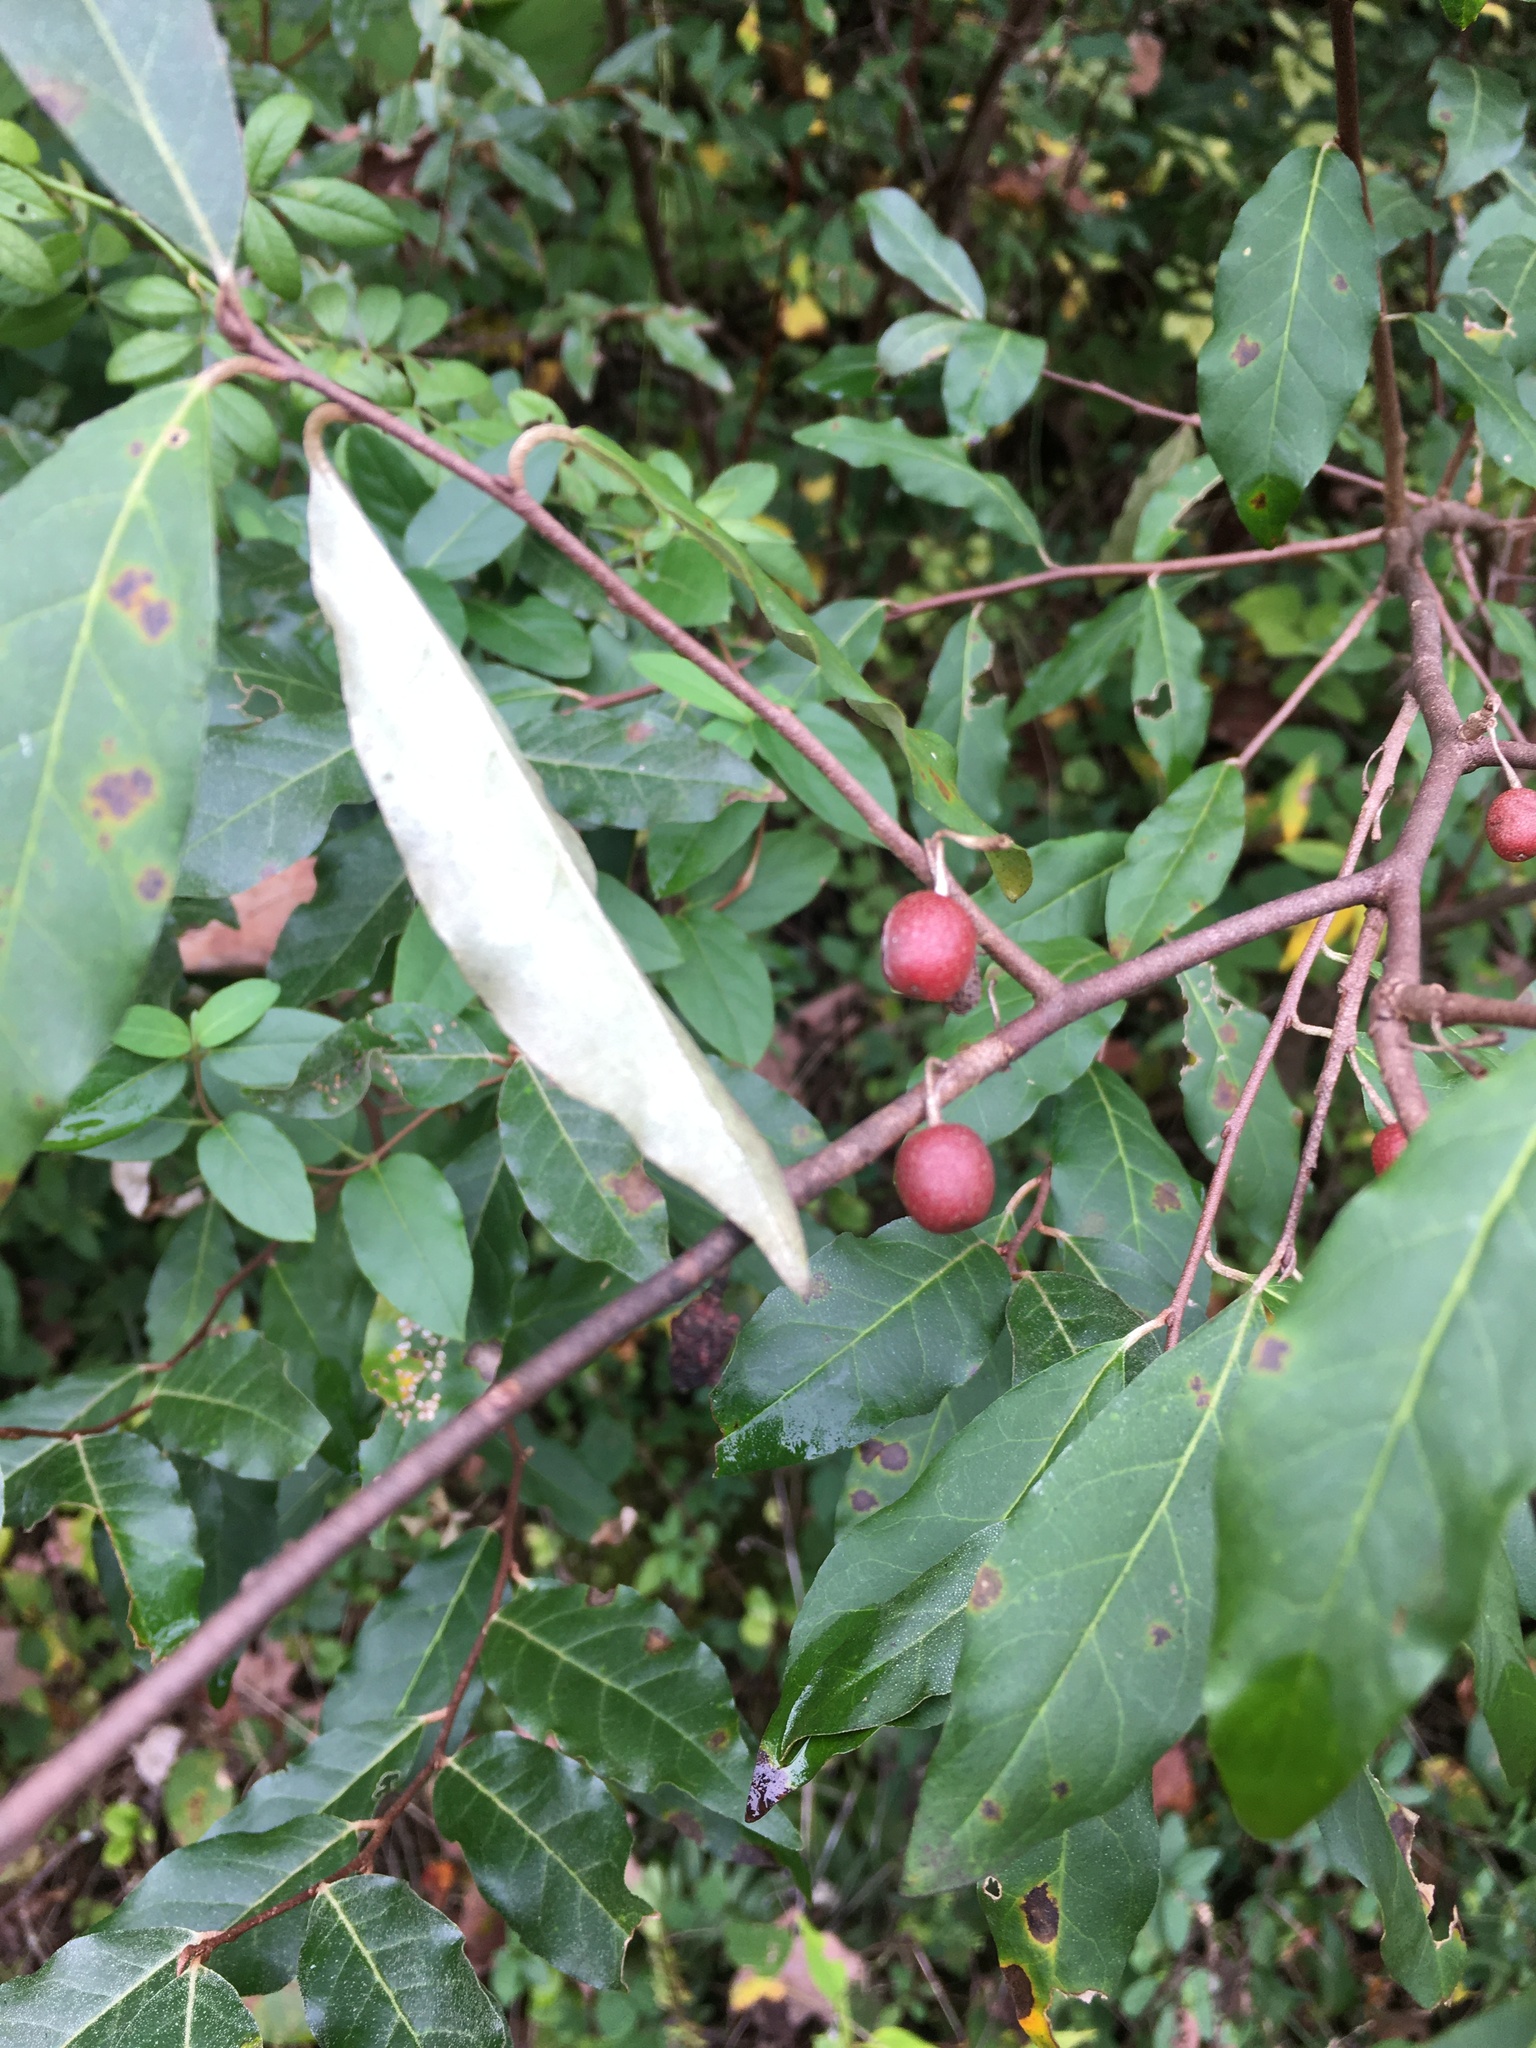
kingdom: Plantae
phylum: Tracheophyta
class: Magnoliopsida
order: Rosales
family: Elaeagnaceae
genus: Elaeagnus
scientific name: Elaeagnus umbellata
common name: Autumn olive
